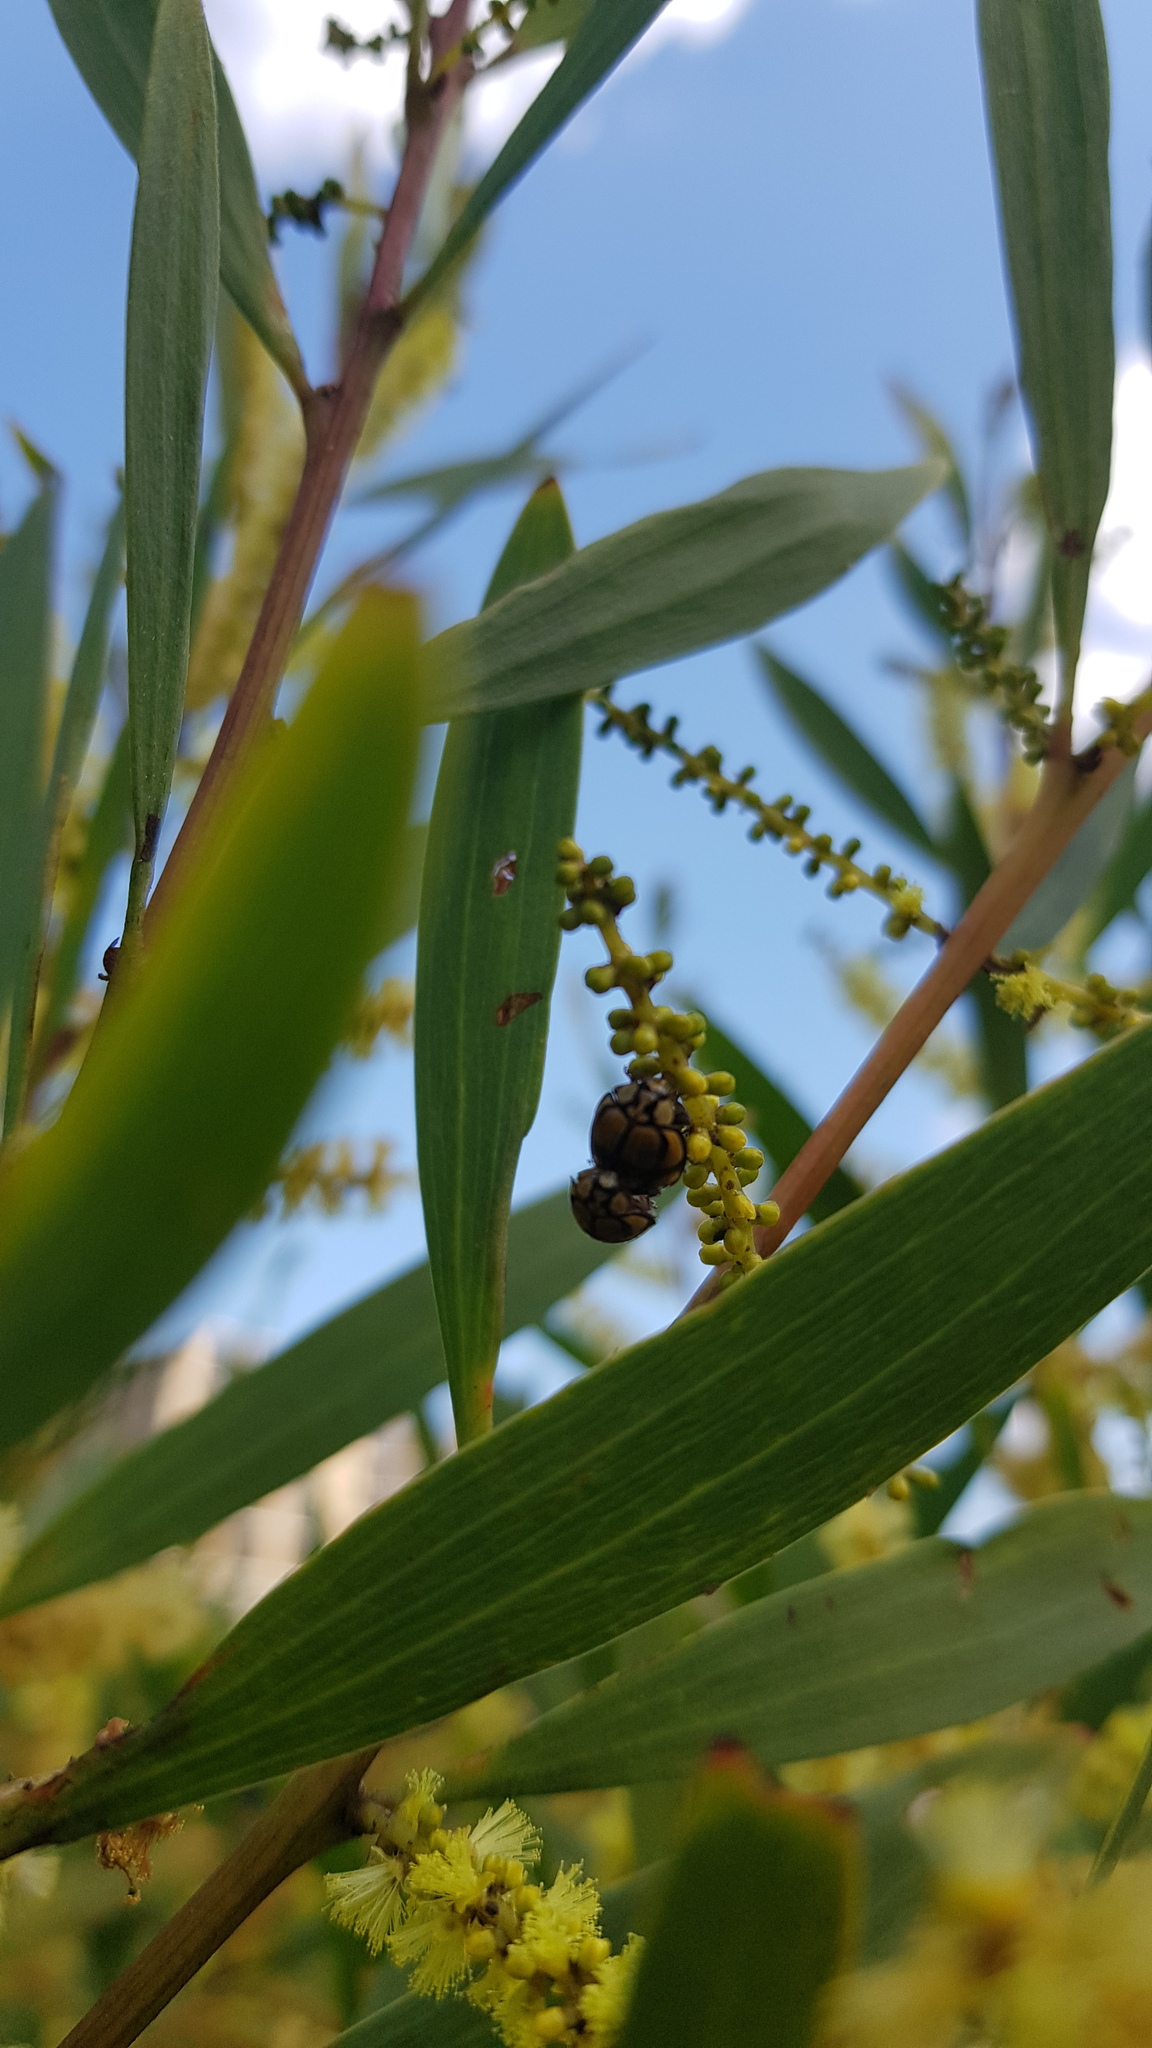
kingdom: Animalia
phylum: Arthropoda
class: Insecta
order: Coleoptera
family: Coccinellidae
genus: Harmonia
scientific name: Harmonia
